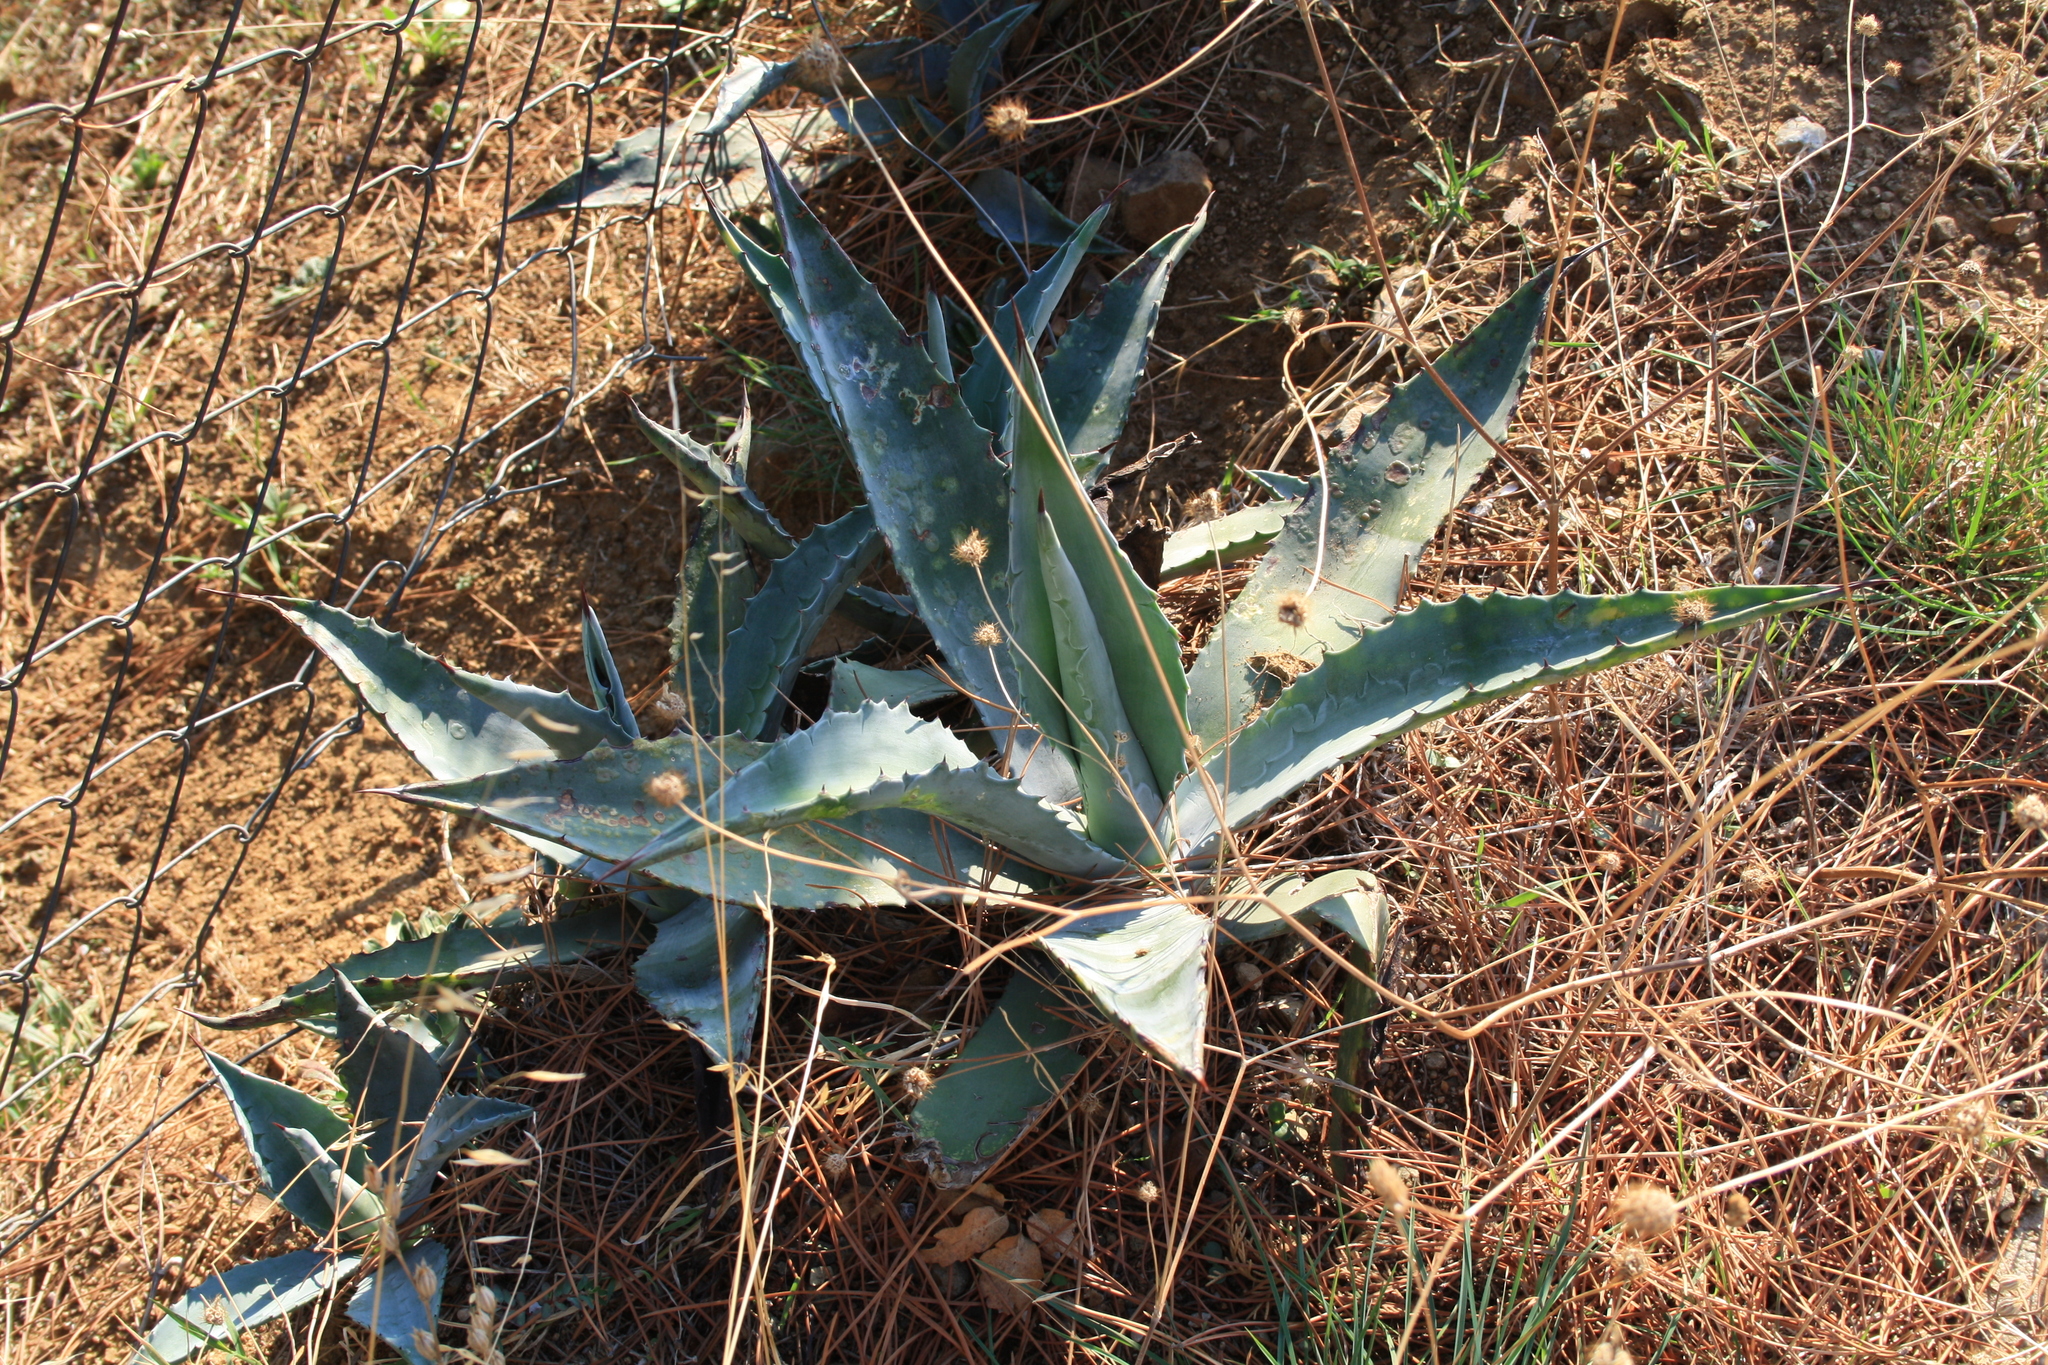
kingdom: Plantae
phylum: Tracheophyta
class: Liliopsida
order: Asparagales
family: Asparagaceae
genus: Agave
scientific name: Agave americana
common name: Centuryplant
